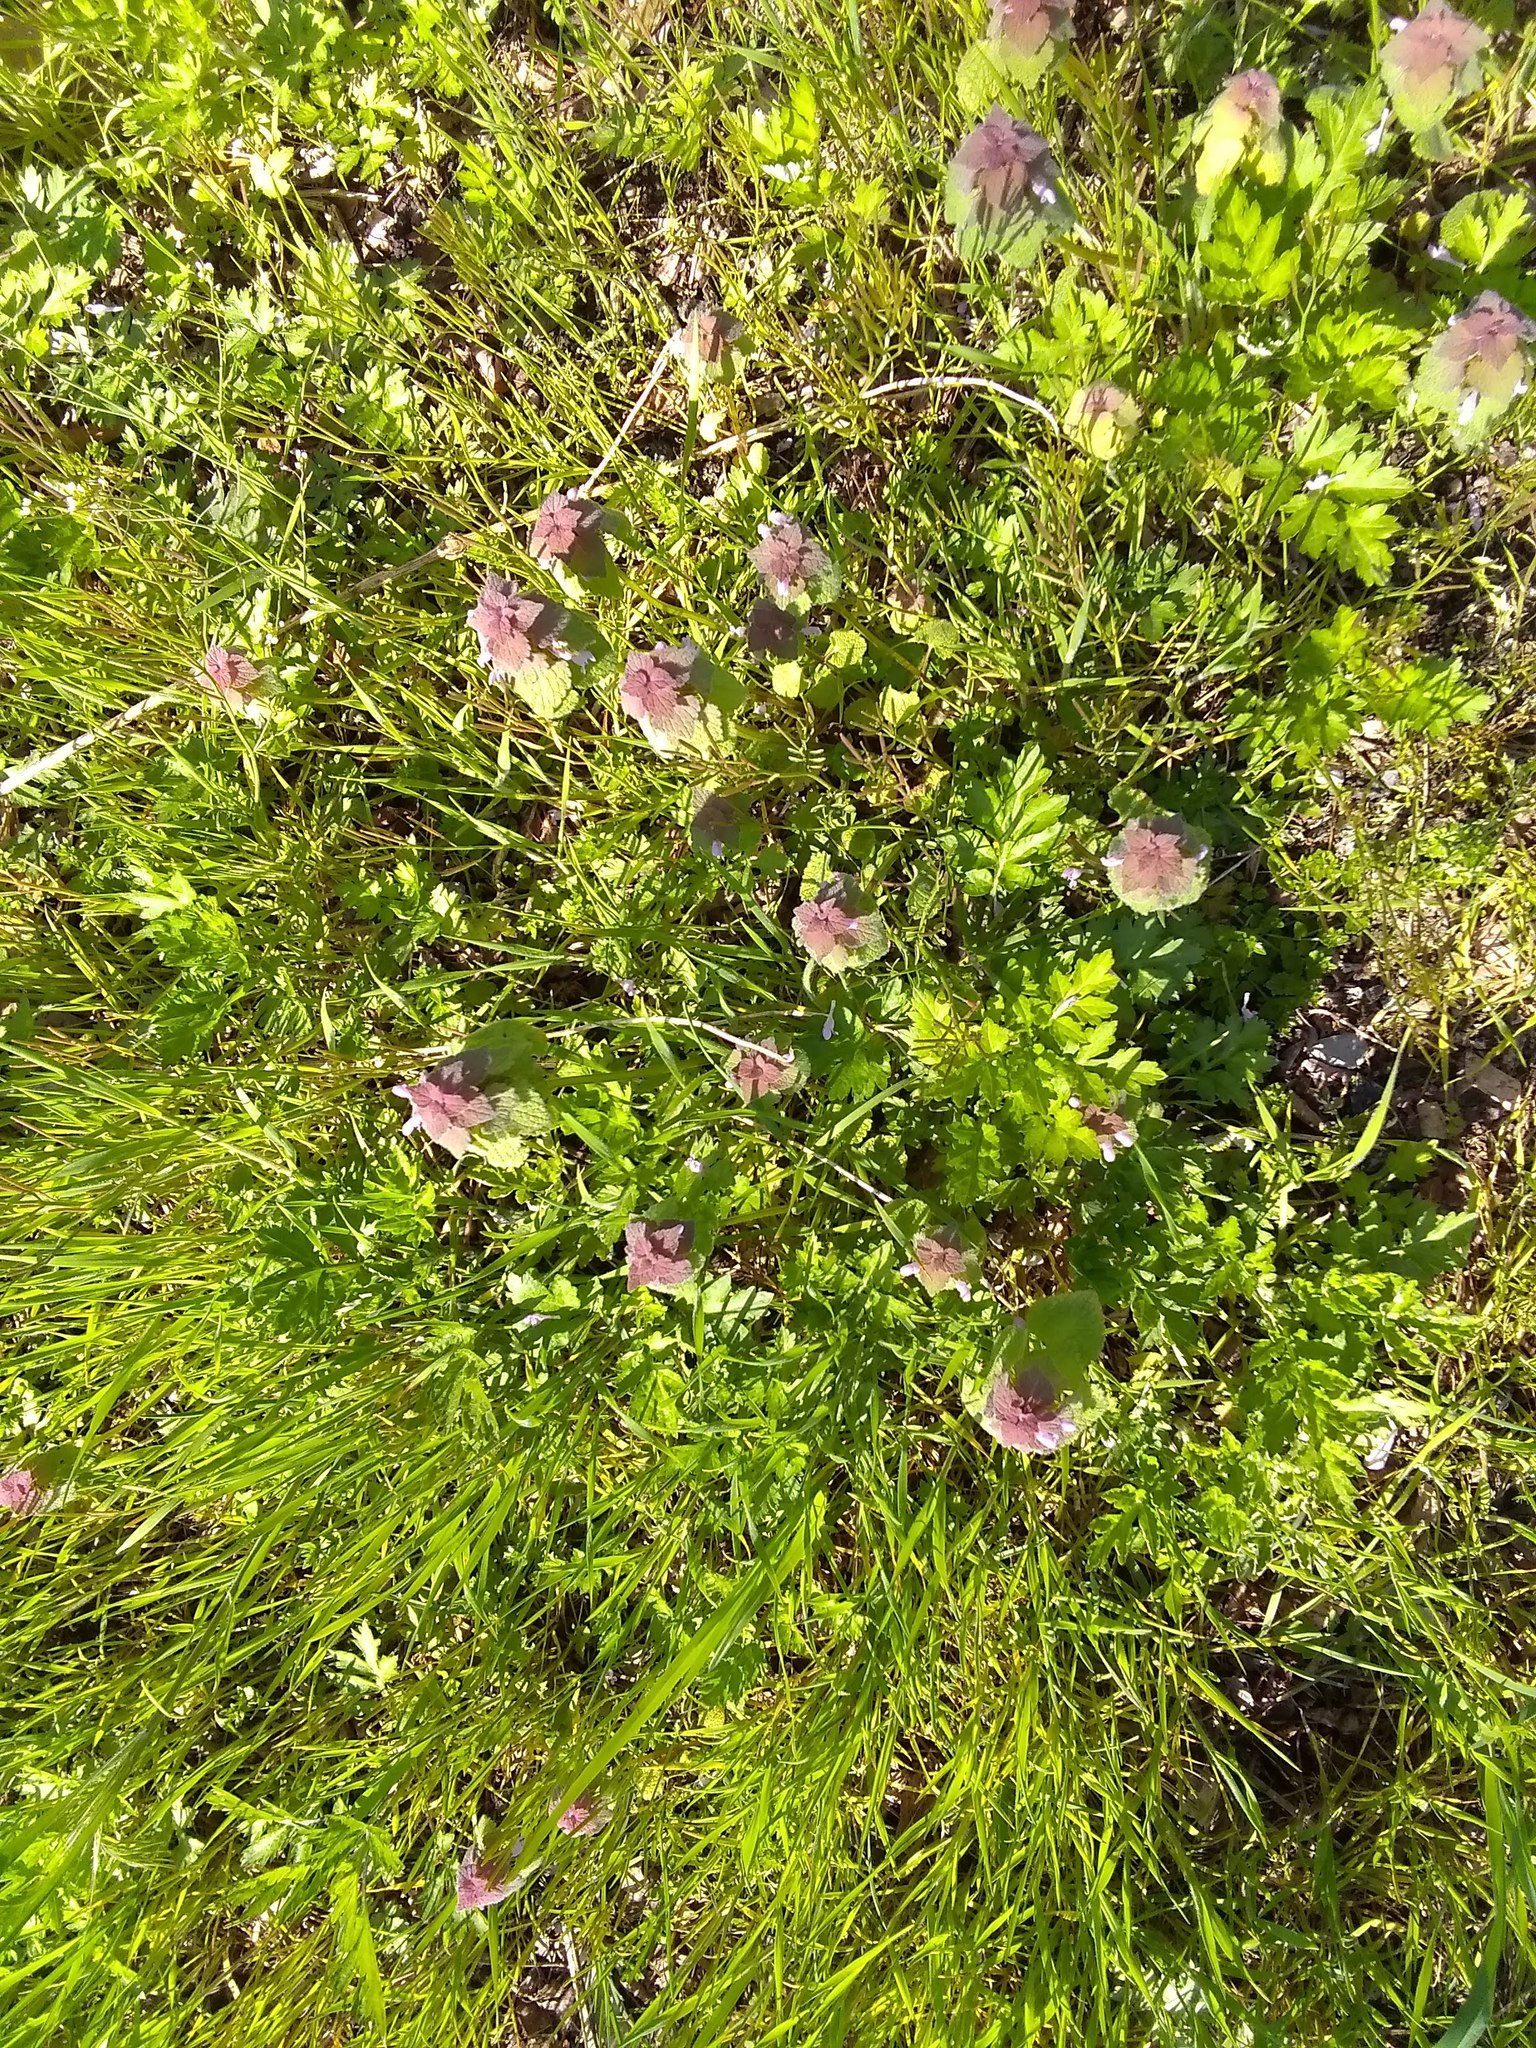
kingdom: Plantae
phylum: Tracheophyta
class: Magnoliopsida
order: Lamiales
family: Lamiaceae
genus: Lamium
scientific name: Lamium purpureum
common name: Red dead-nettle
